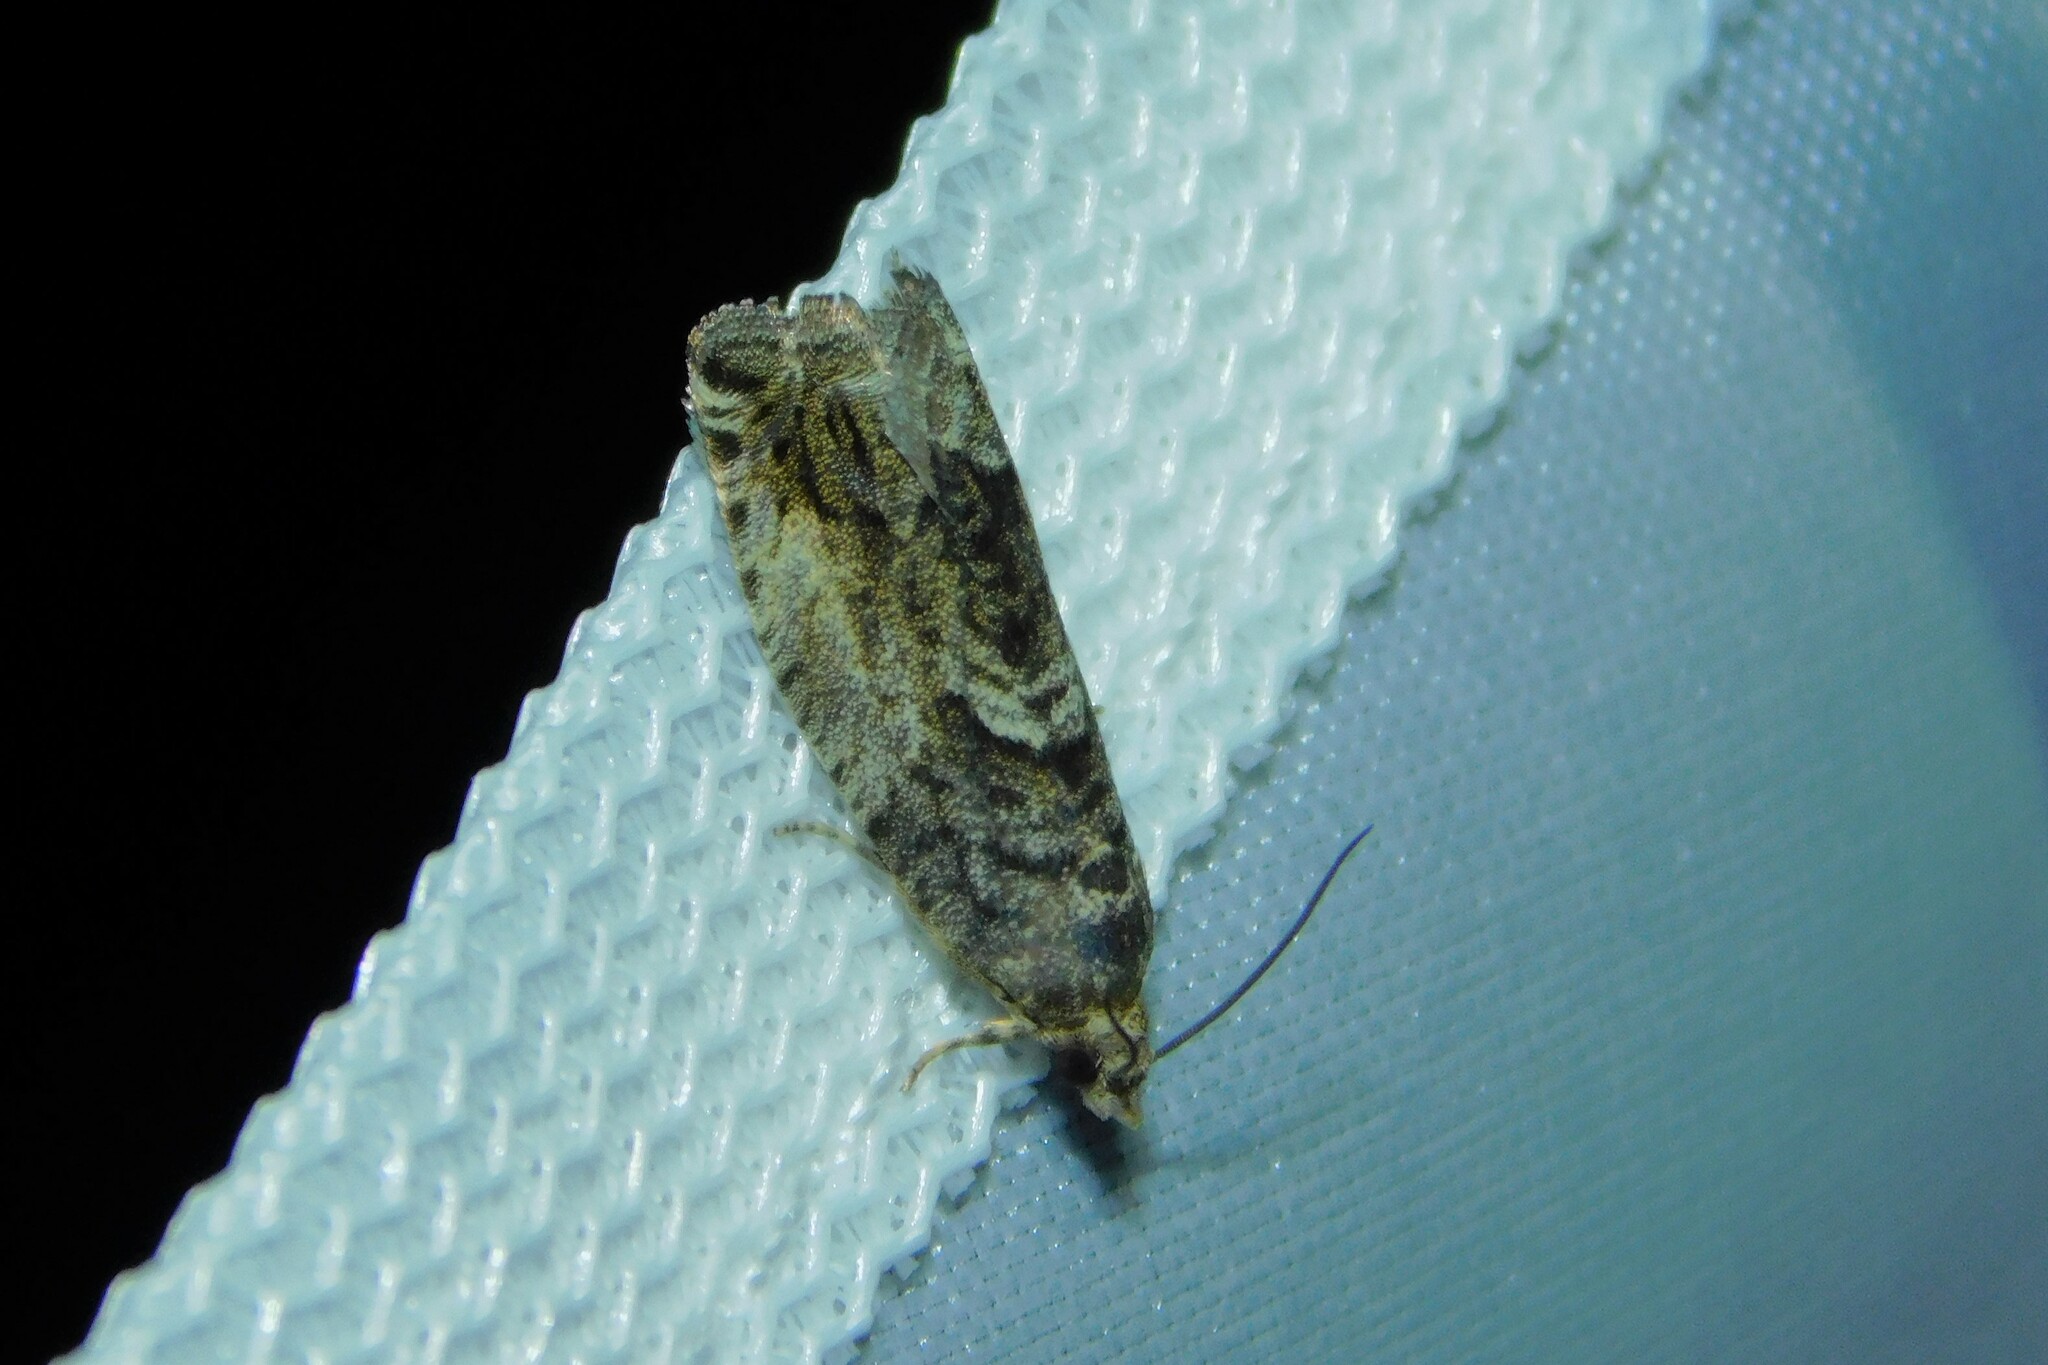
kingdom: Animalia
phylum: Arthropoda
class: Insecta
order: Lepidoptera
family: Tortricidae
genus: Cydia
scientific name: Cydia fagiglandana
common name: Large beech piercer
